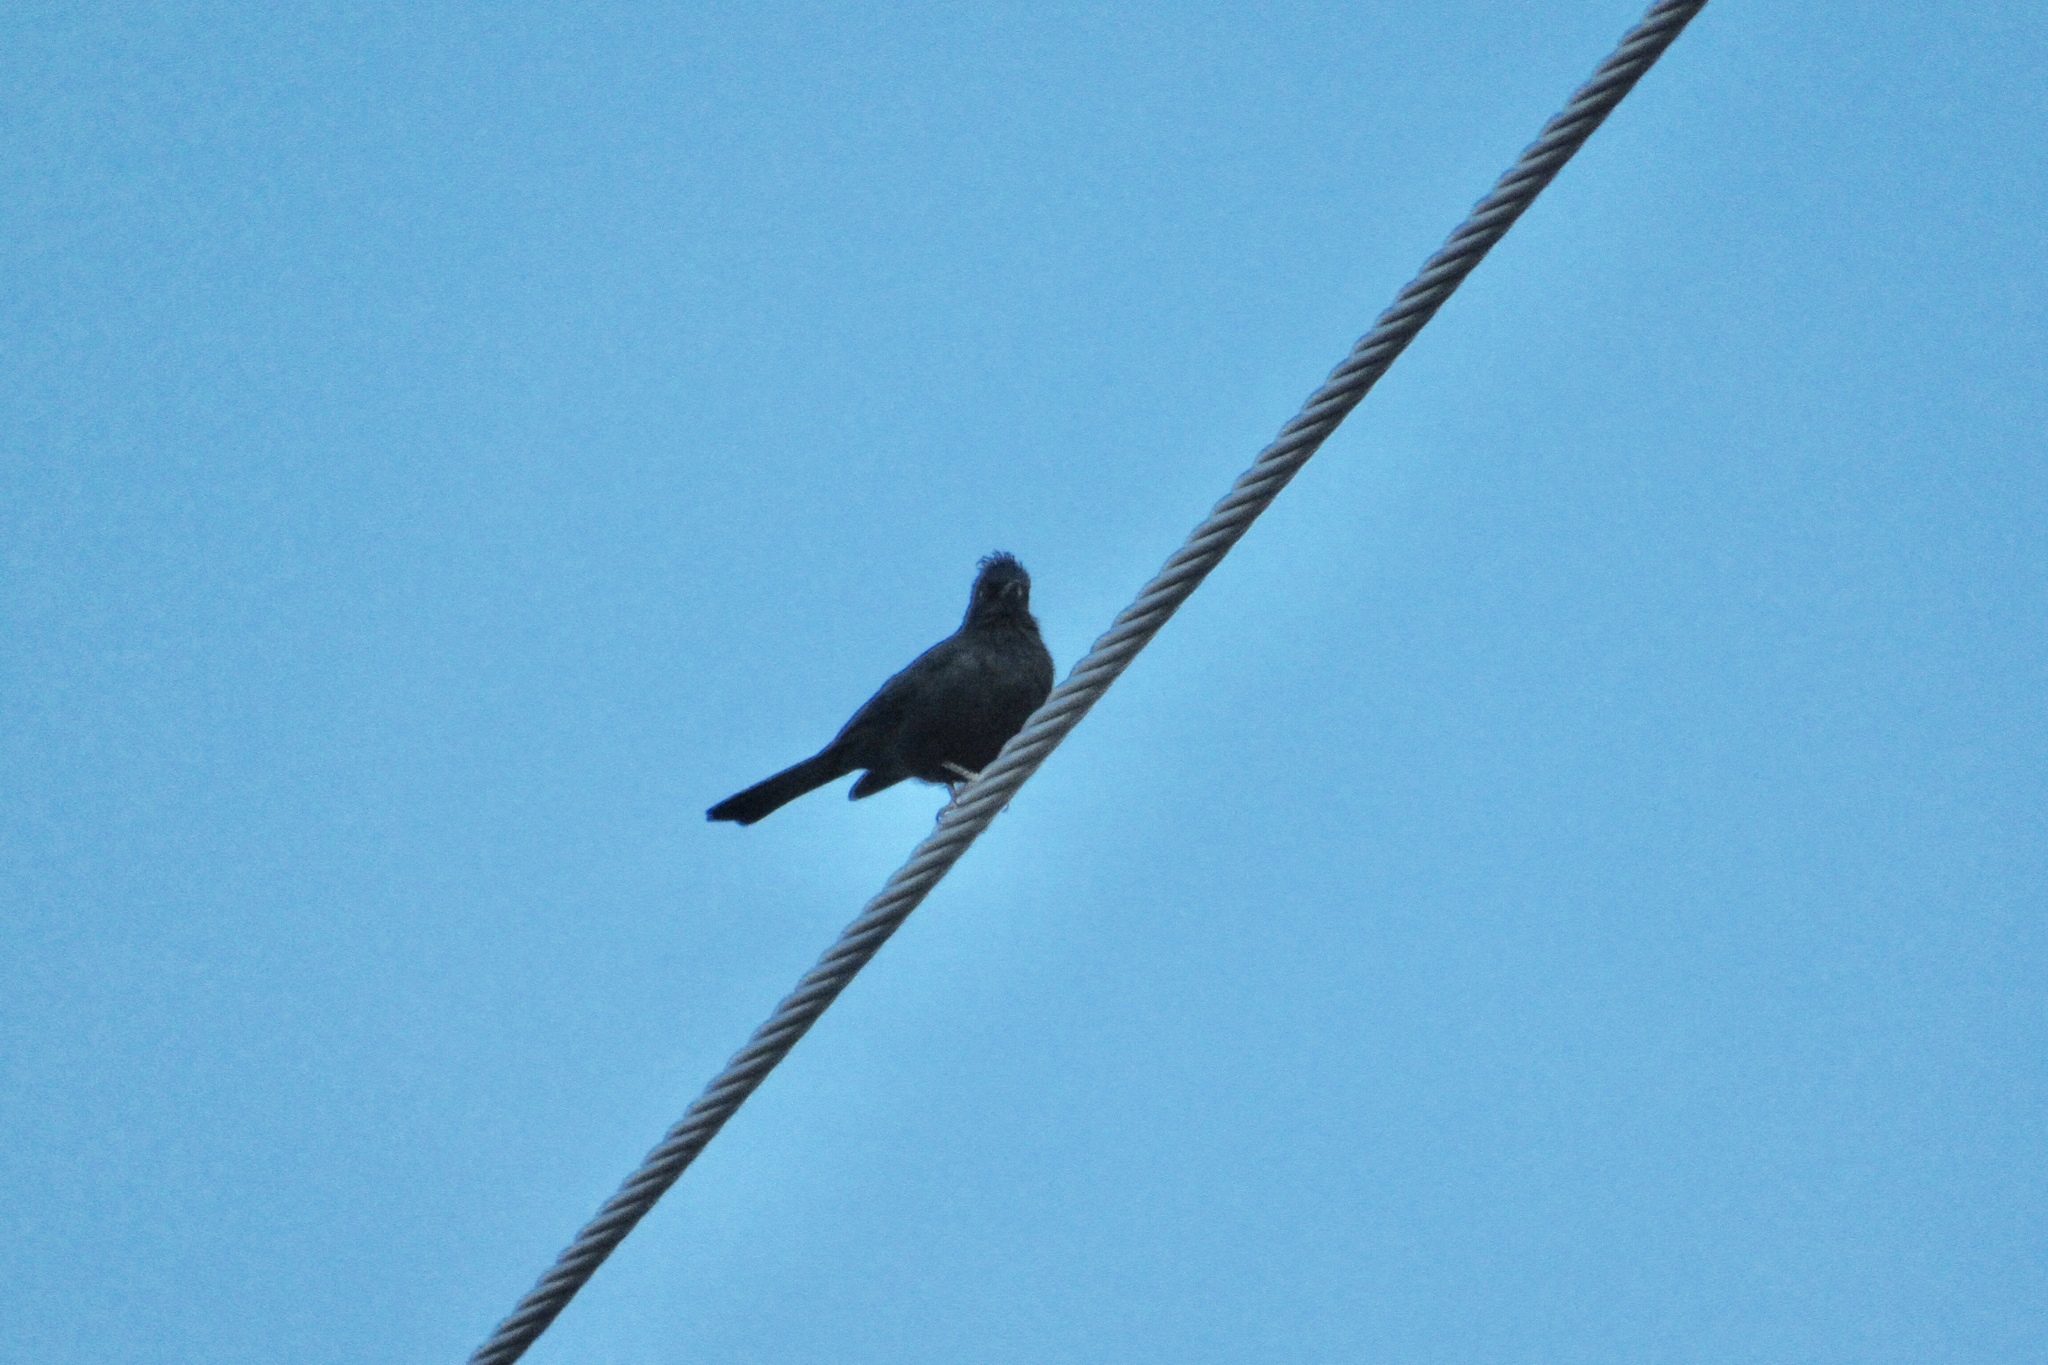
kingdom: Animalia
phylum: Chordata
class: Aves
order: Passeriformes
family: Ptilogonatidae
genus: Phainopepla
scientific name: Phainopepla nitens
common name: Phainopepla
